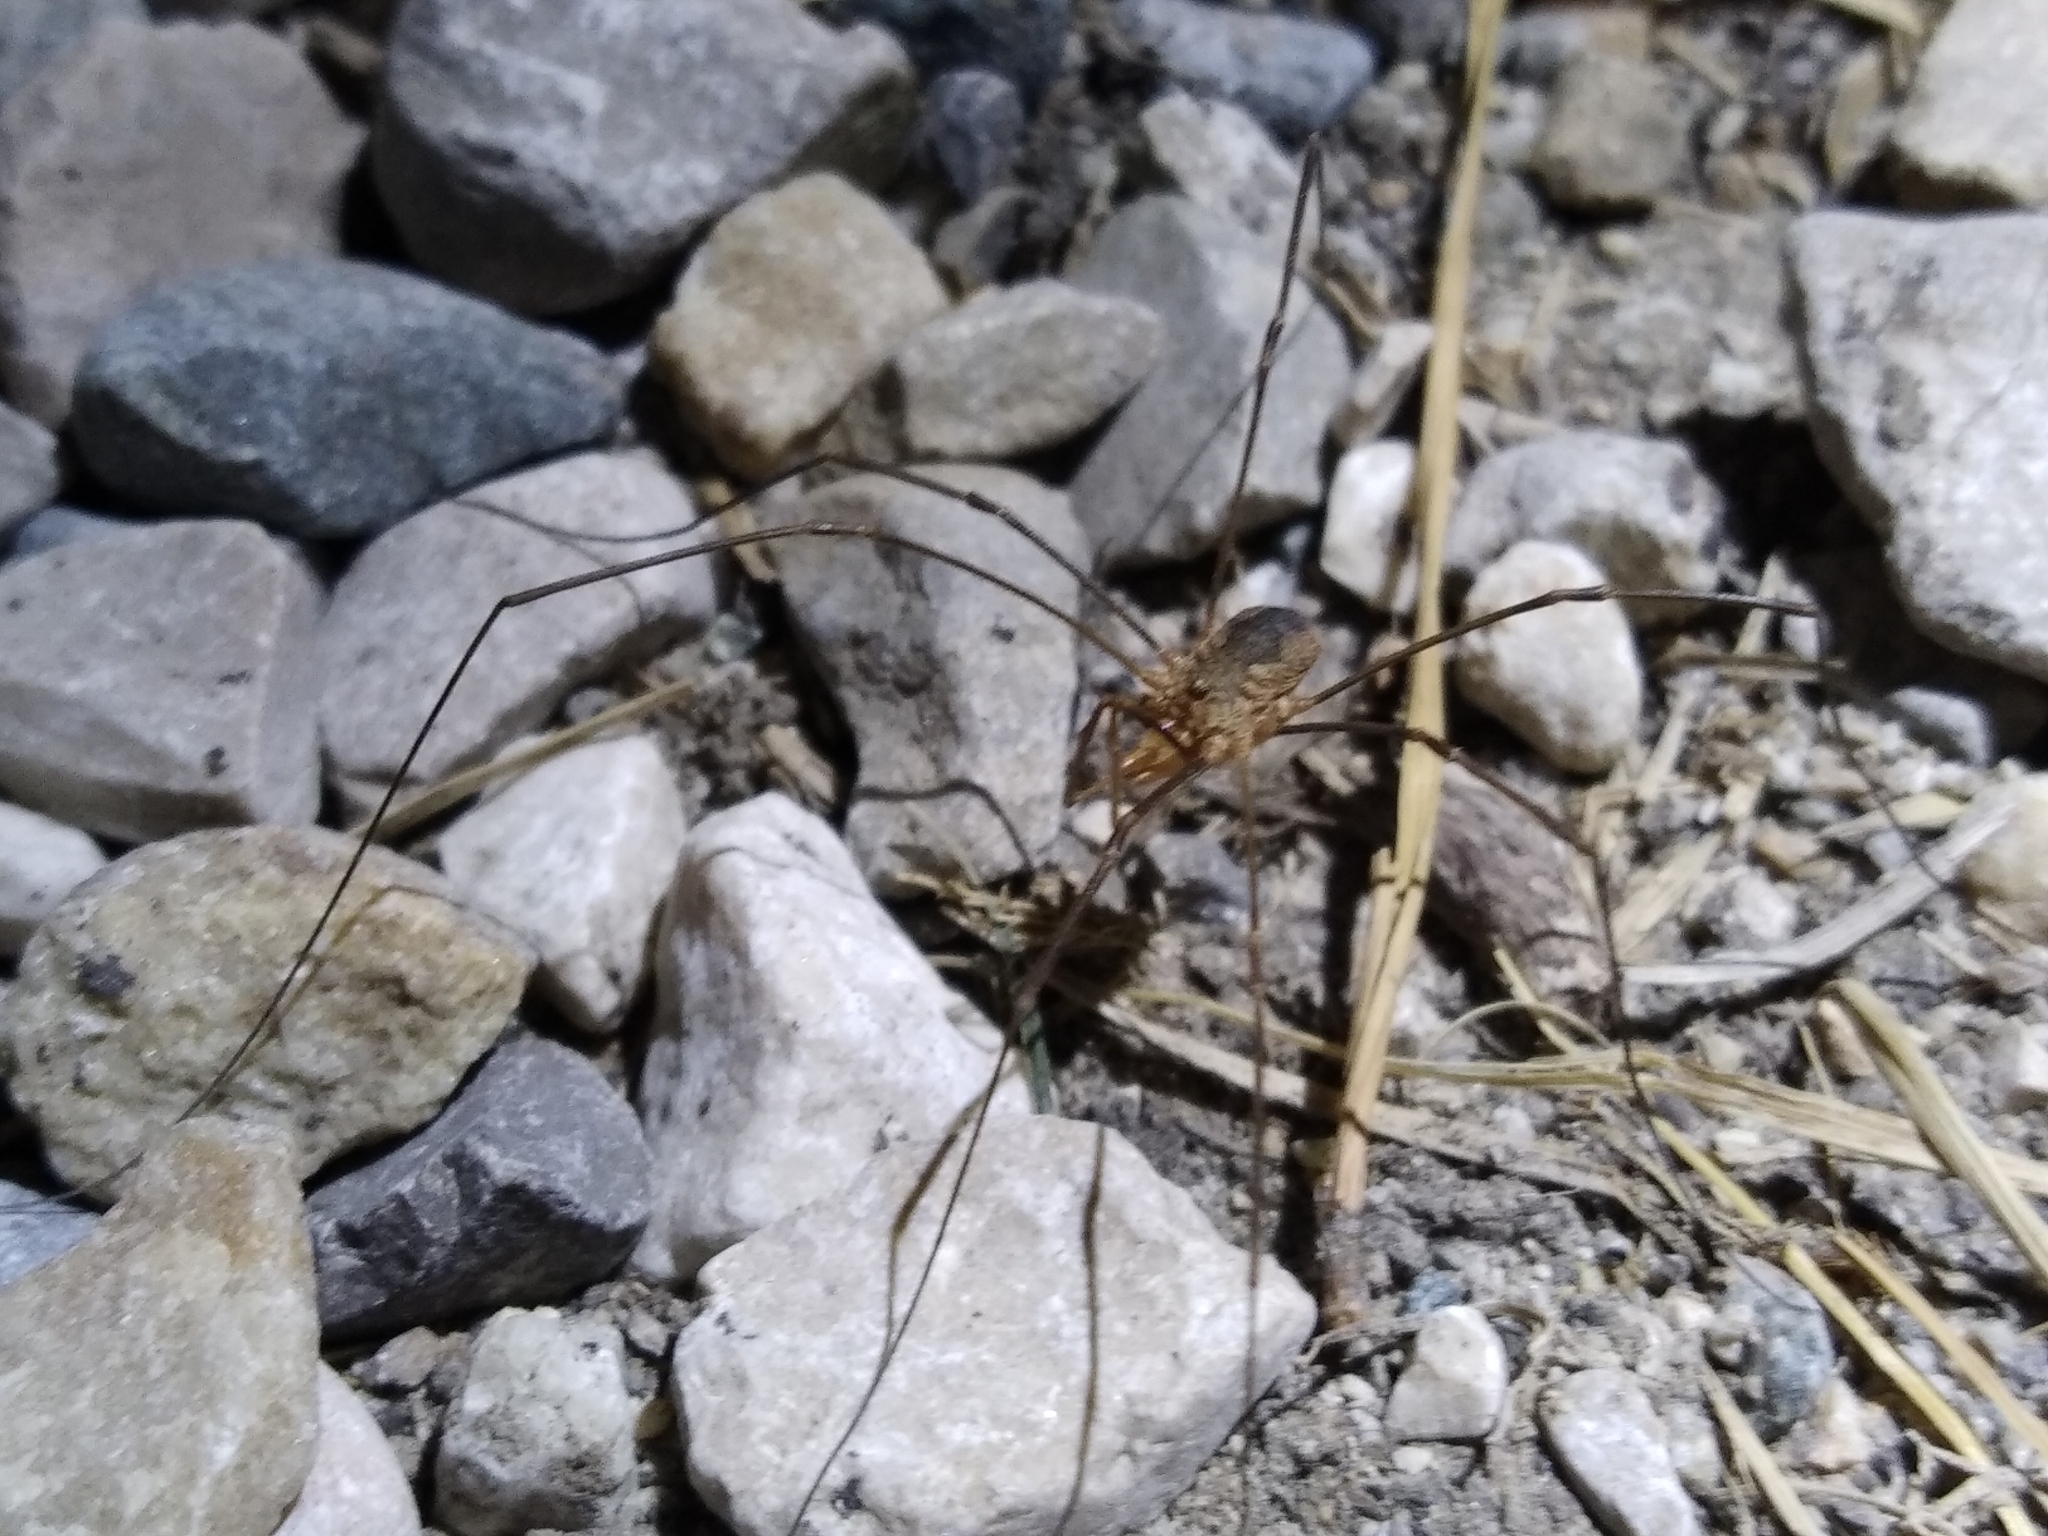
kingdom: Animalia
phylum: Arthropoda
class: Arachnida
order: Opiliones
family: Phalangiidae
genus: Phalangium
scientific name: Phalangium opilio
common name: Daddy longleg
